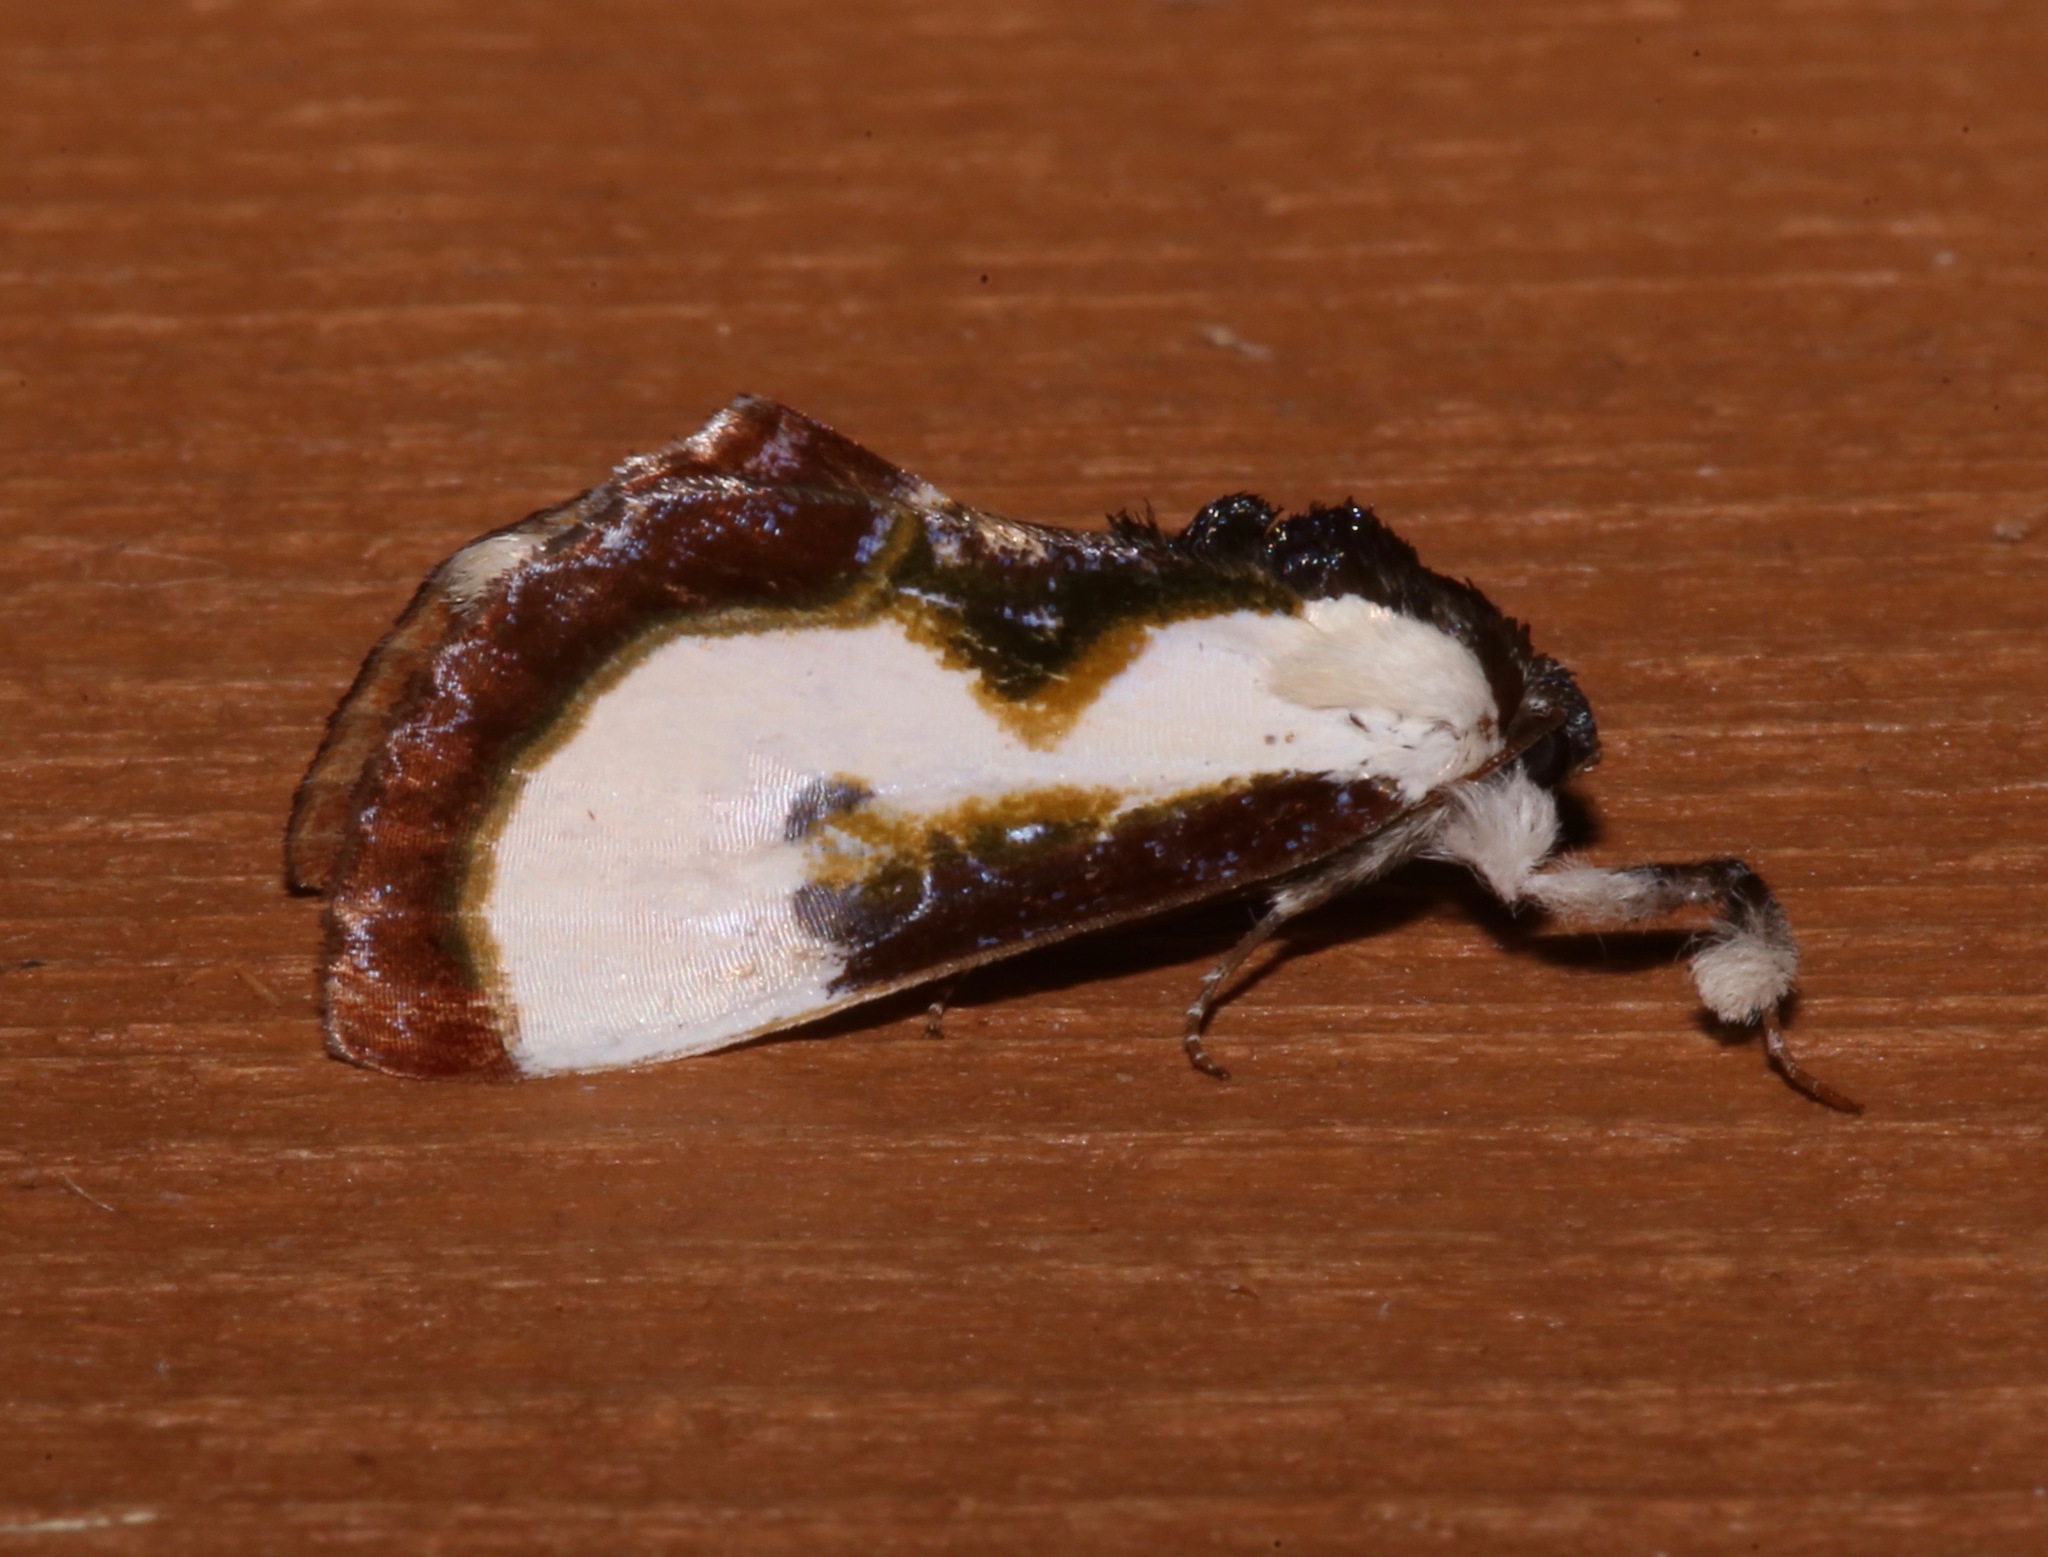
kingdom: Animalia
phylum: Arthropoda
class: Insecta
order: Lepidoptera
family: Noctuidae
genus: Eudryas
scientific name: Eudryas grata
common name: Beautiful wood-nymph
